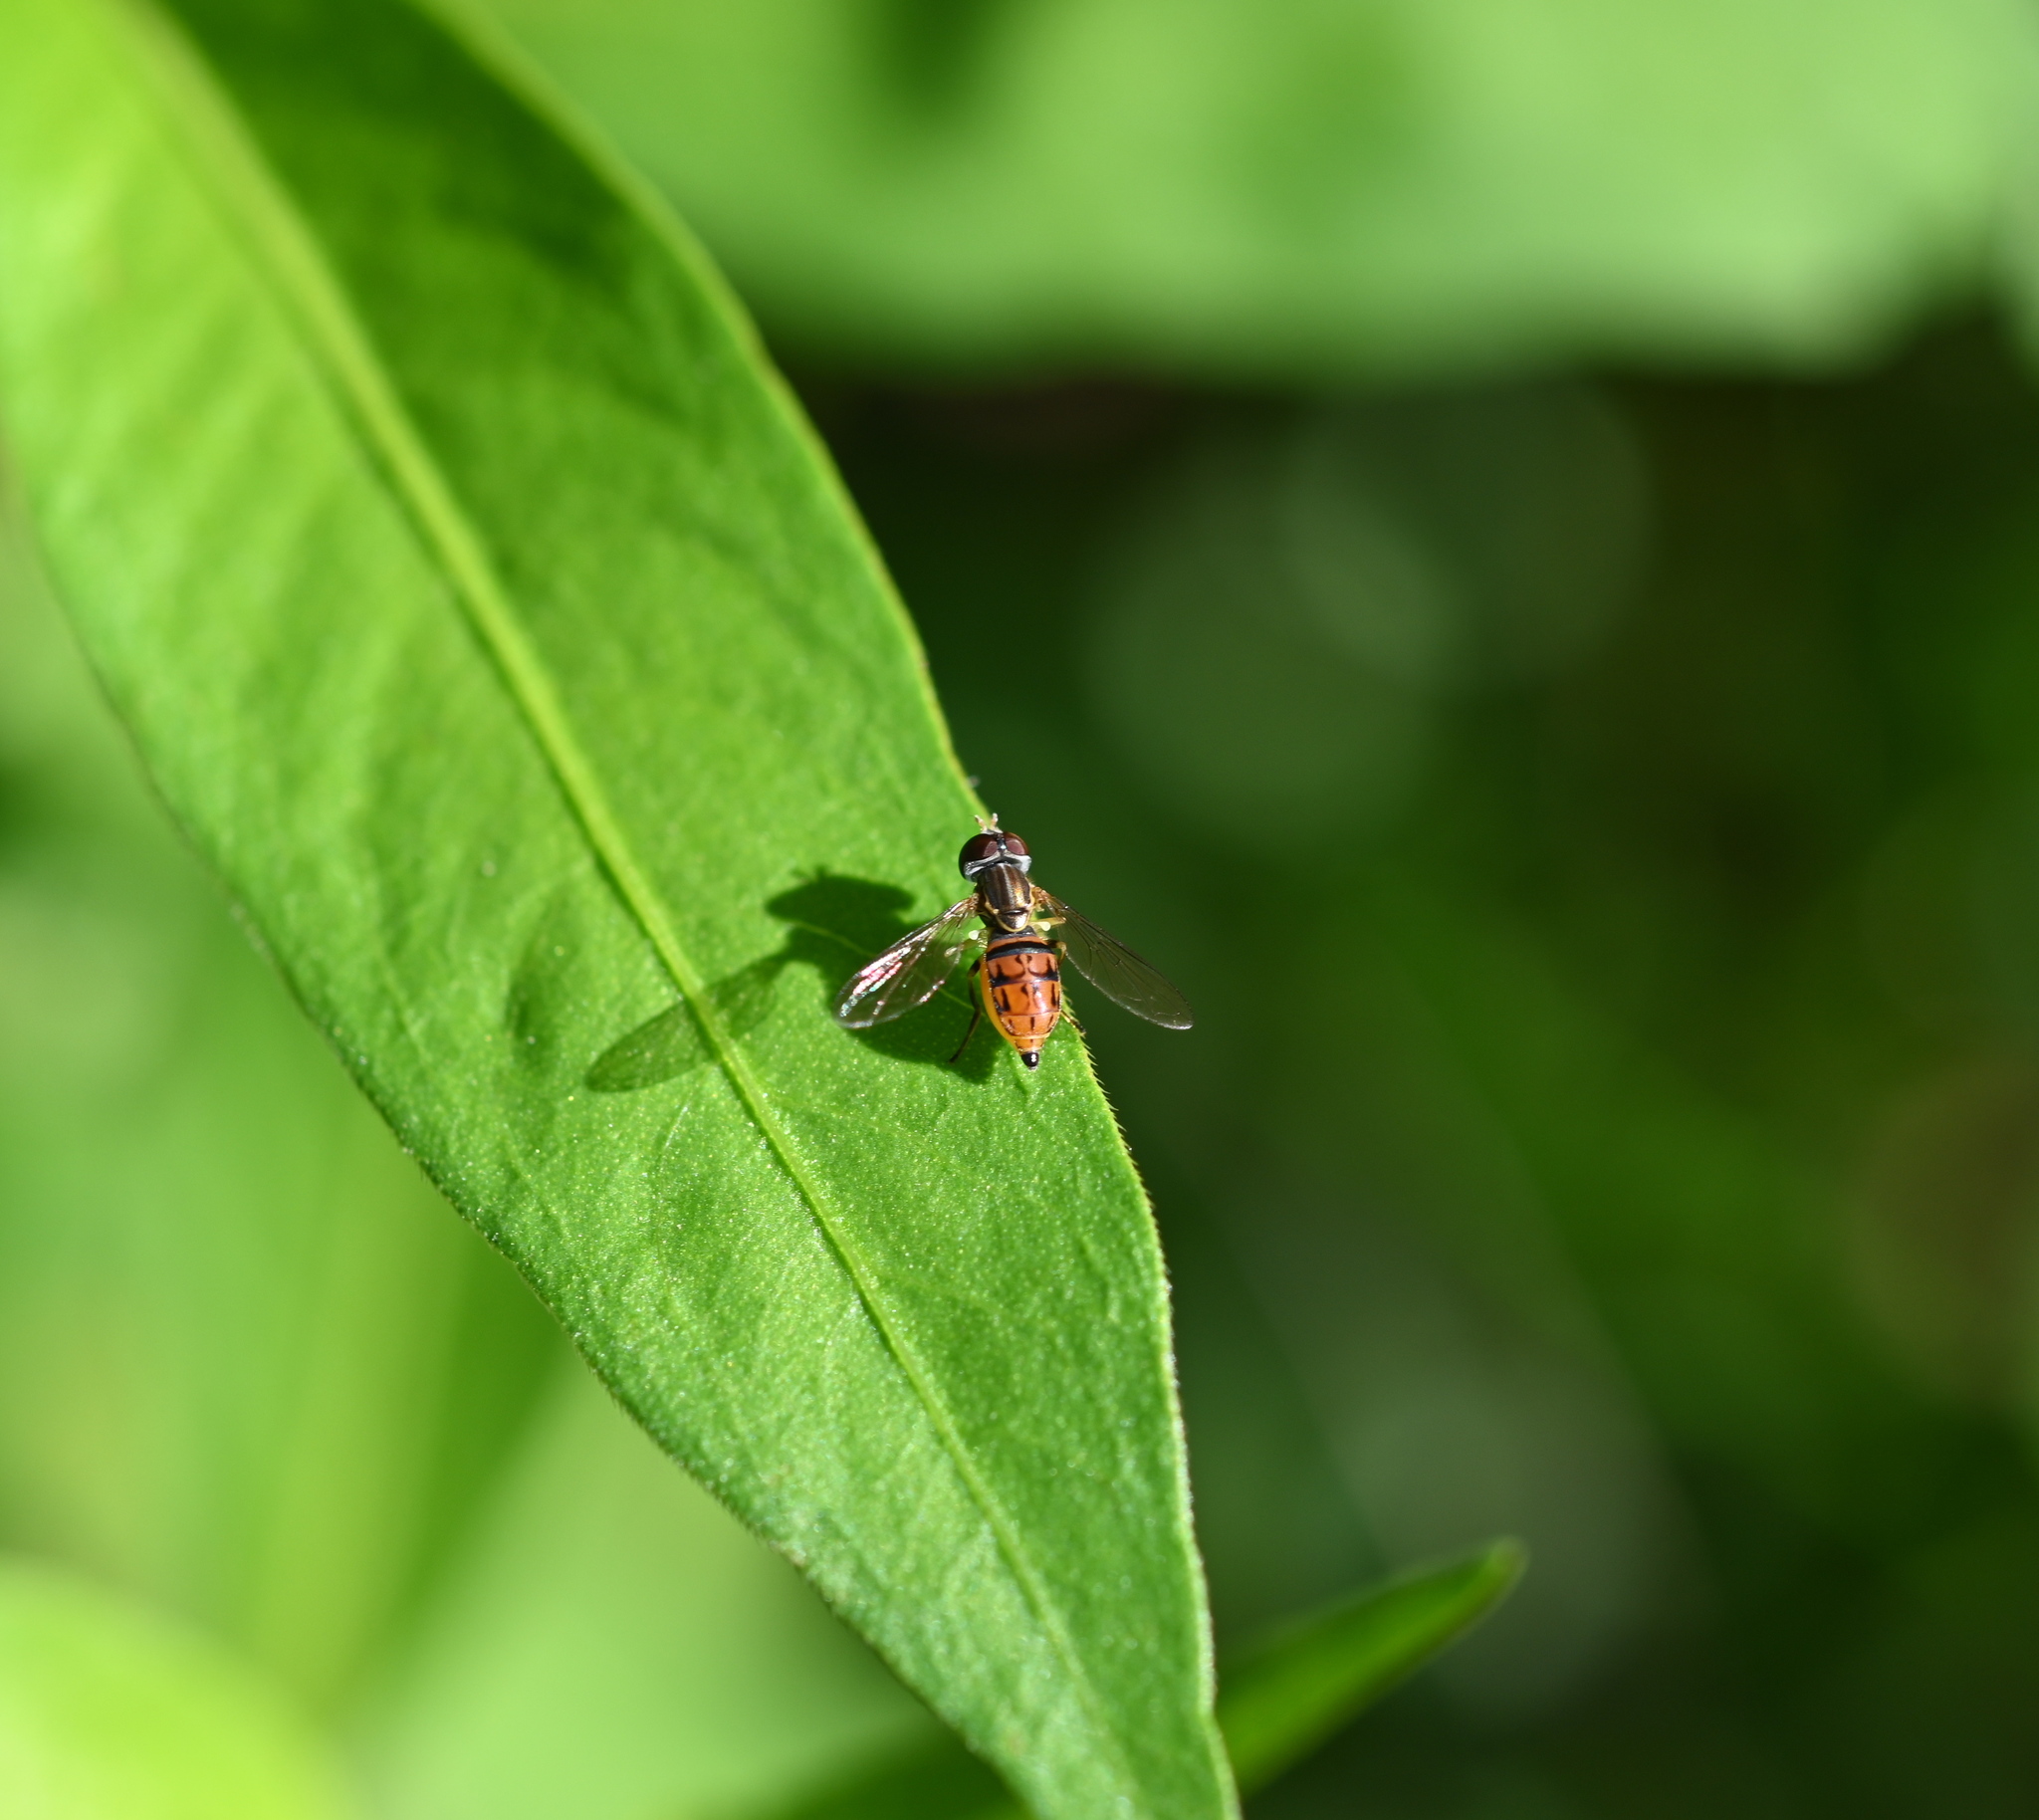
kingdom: Animalia
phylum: Arthropoda
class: Insecta
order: Diptera
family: Syrphidae
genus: Toxomerus
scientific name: Toxomerus boscii
